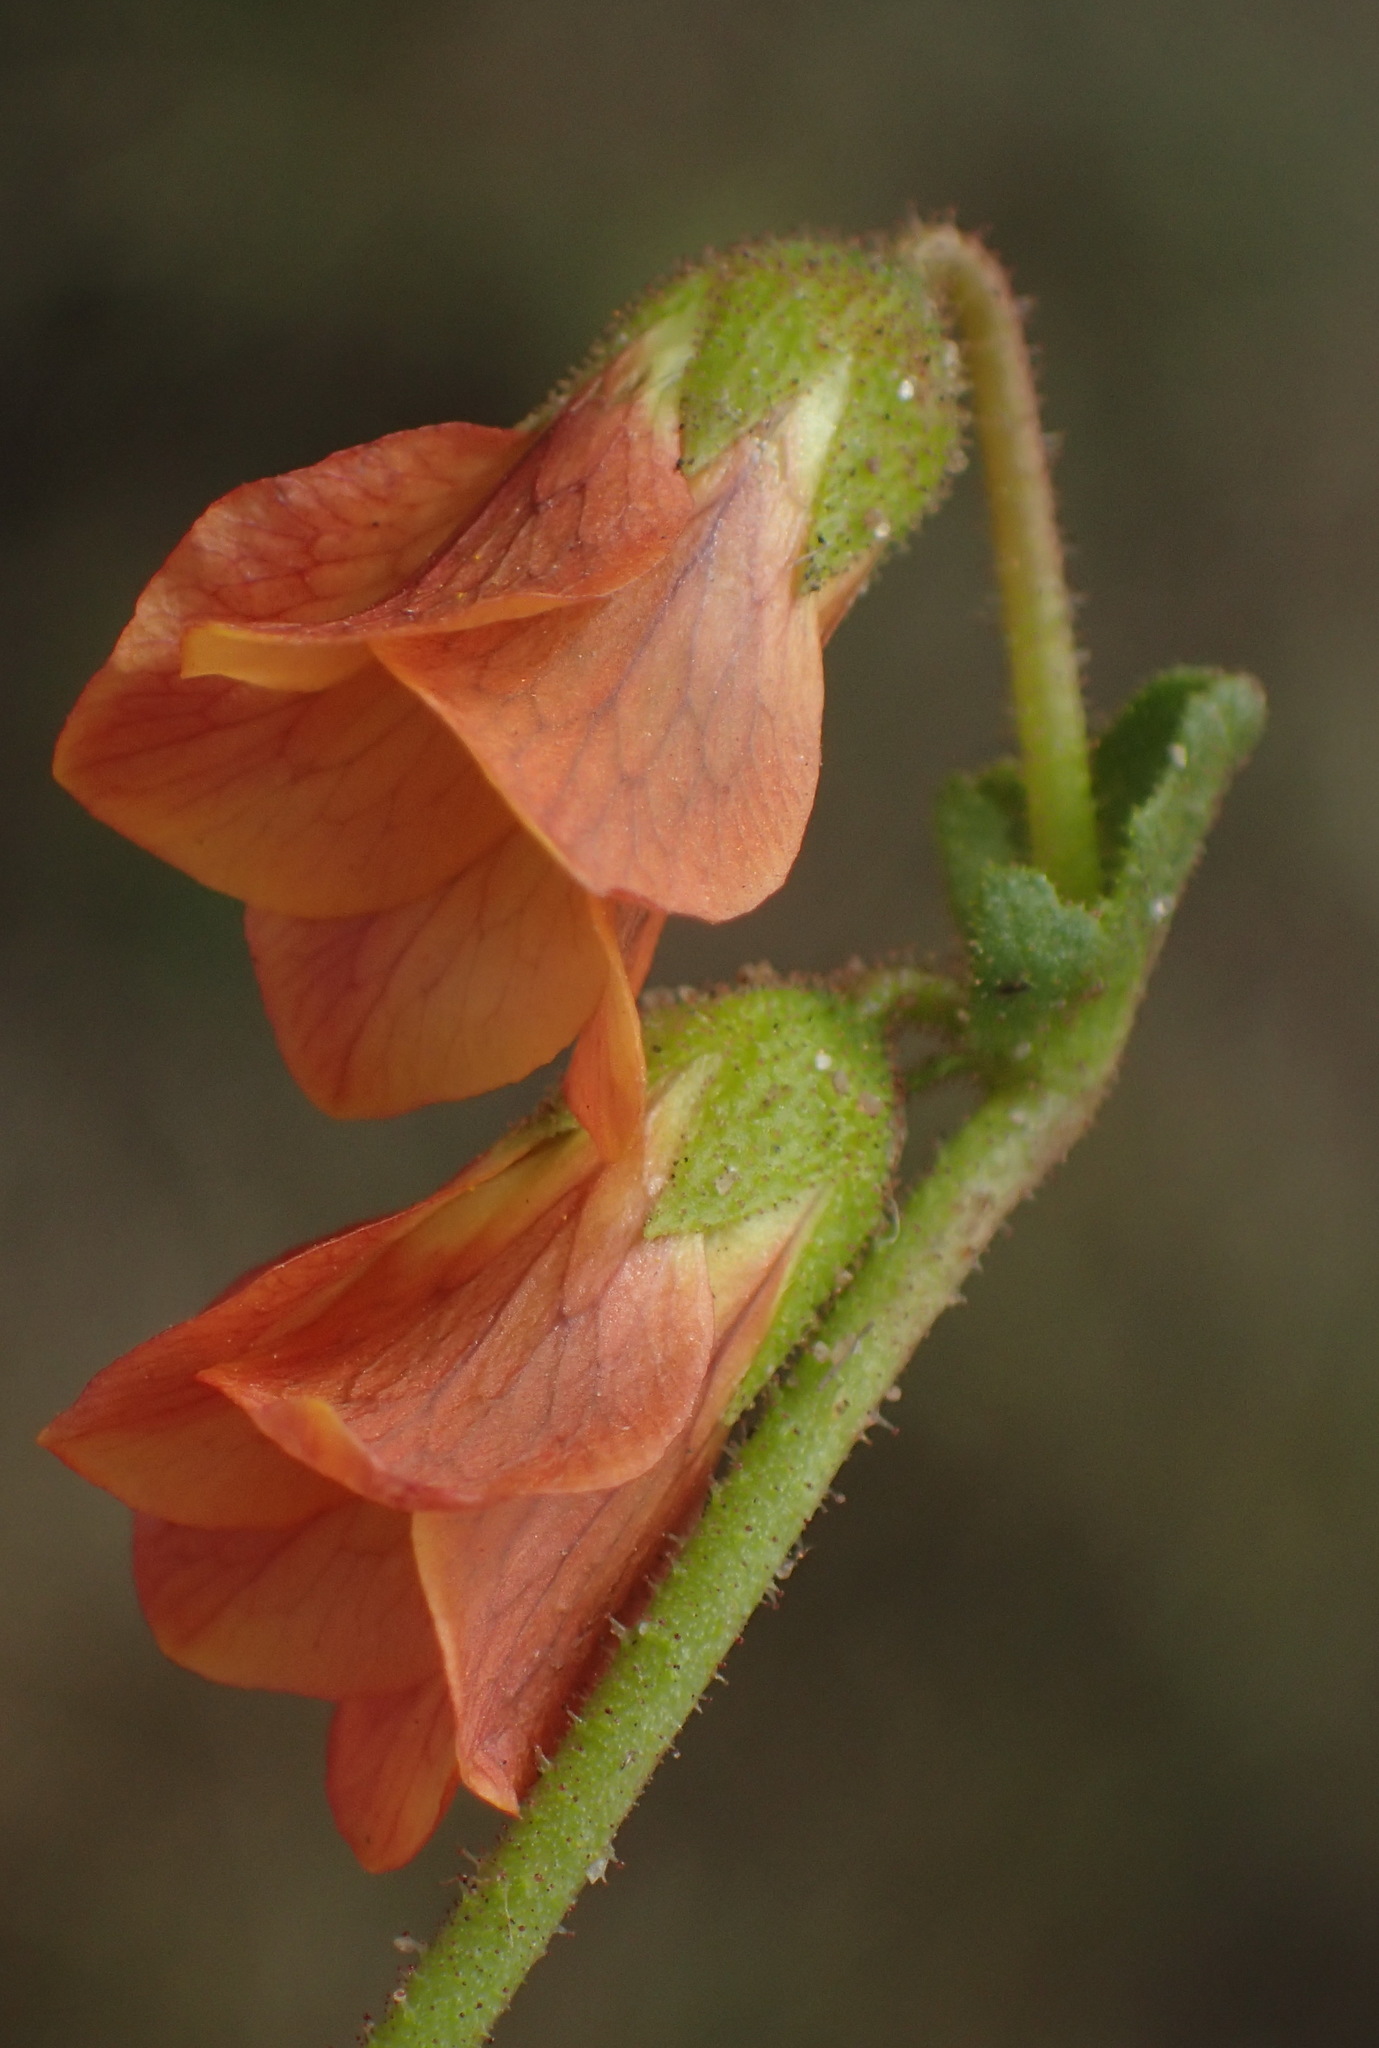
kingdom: Plantae
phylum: Tracheophyta
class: Magnoliopsida
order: Malvales
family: Malvaceae
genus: Hermannia
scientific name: Hermannia diffusa
